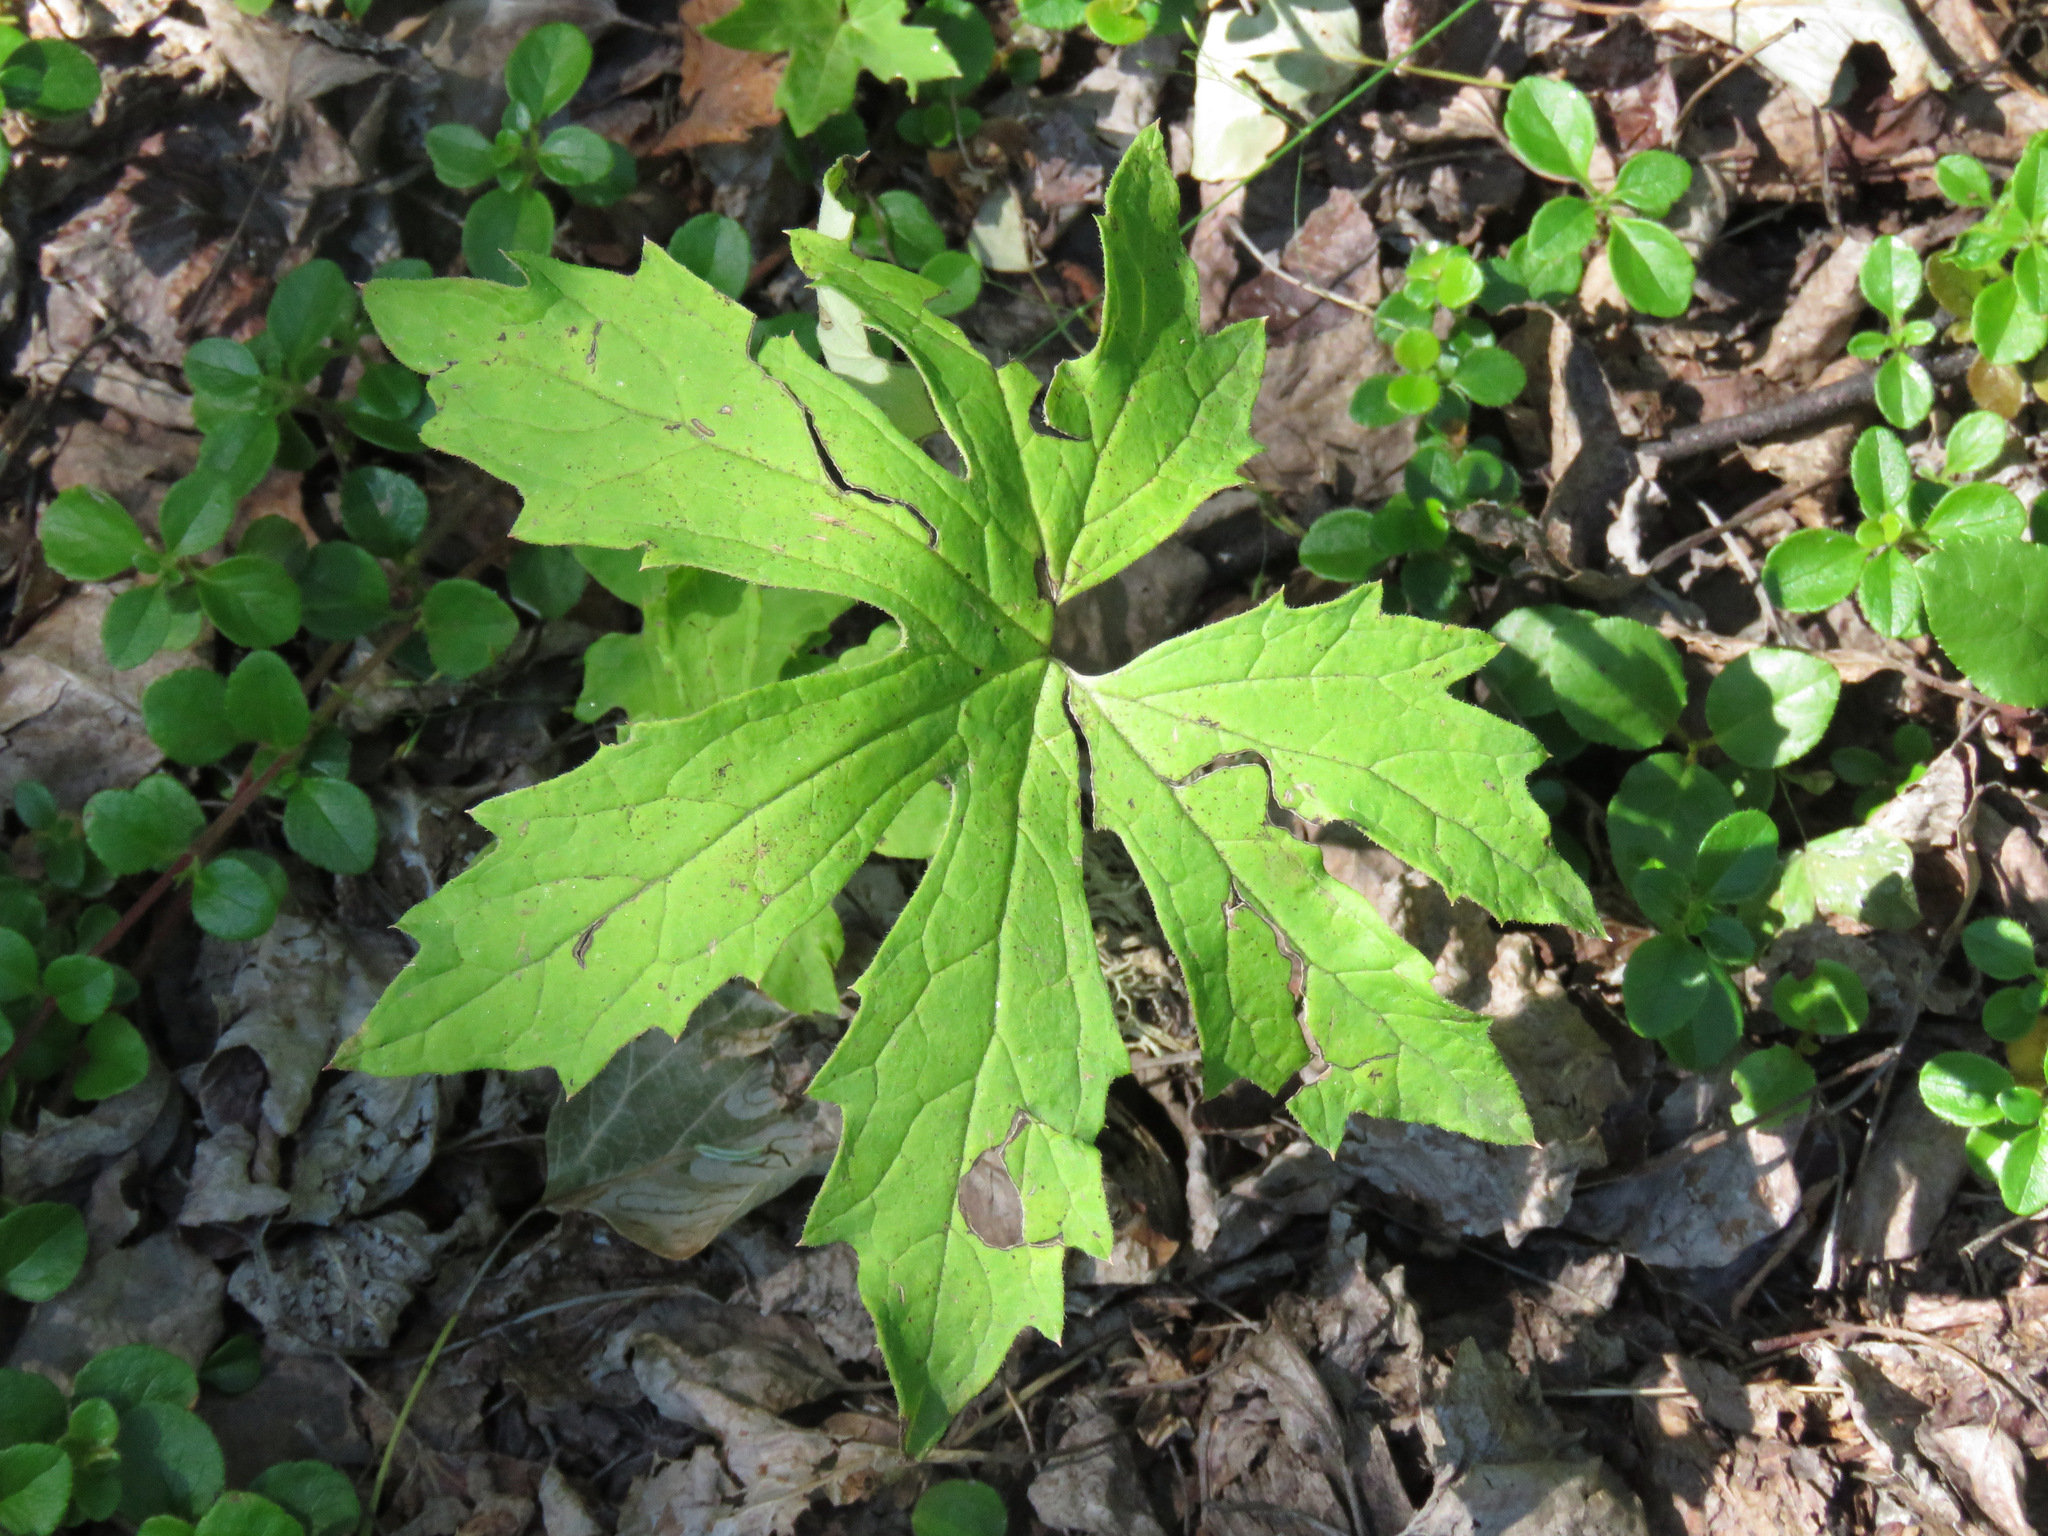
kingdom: Plantae
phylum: Tracheophyta
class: Magnoliopsida
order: Asterales
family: Asteraceae
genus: Petasites
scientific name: Petasites frigidus
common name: Arctic butterbur
